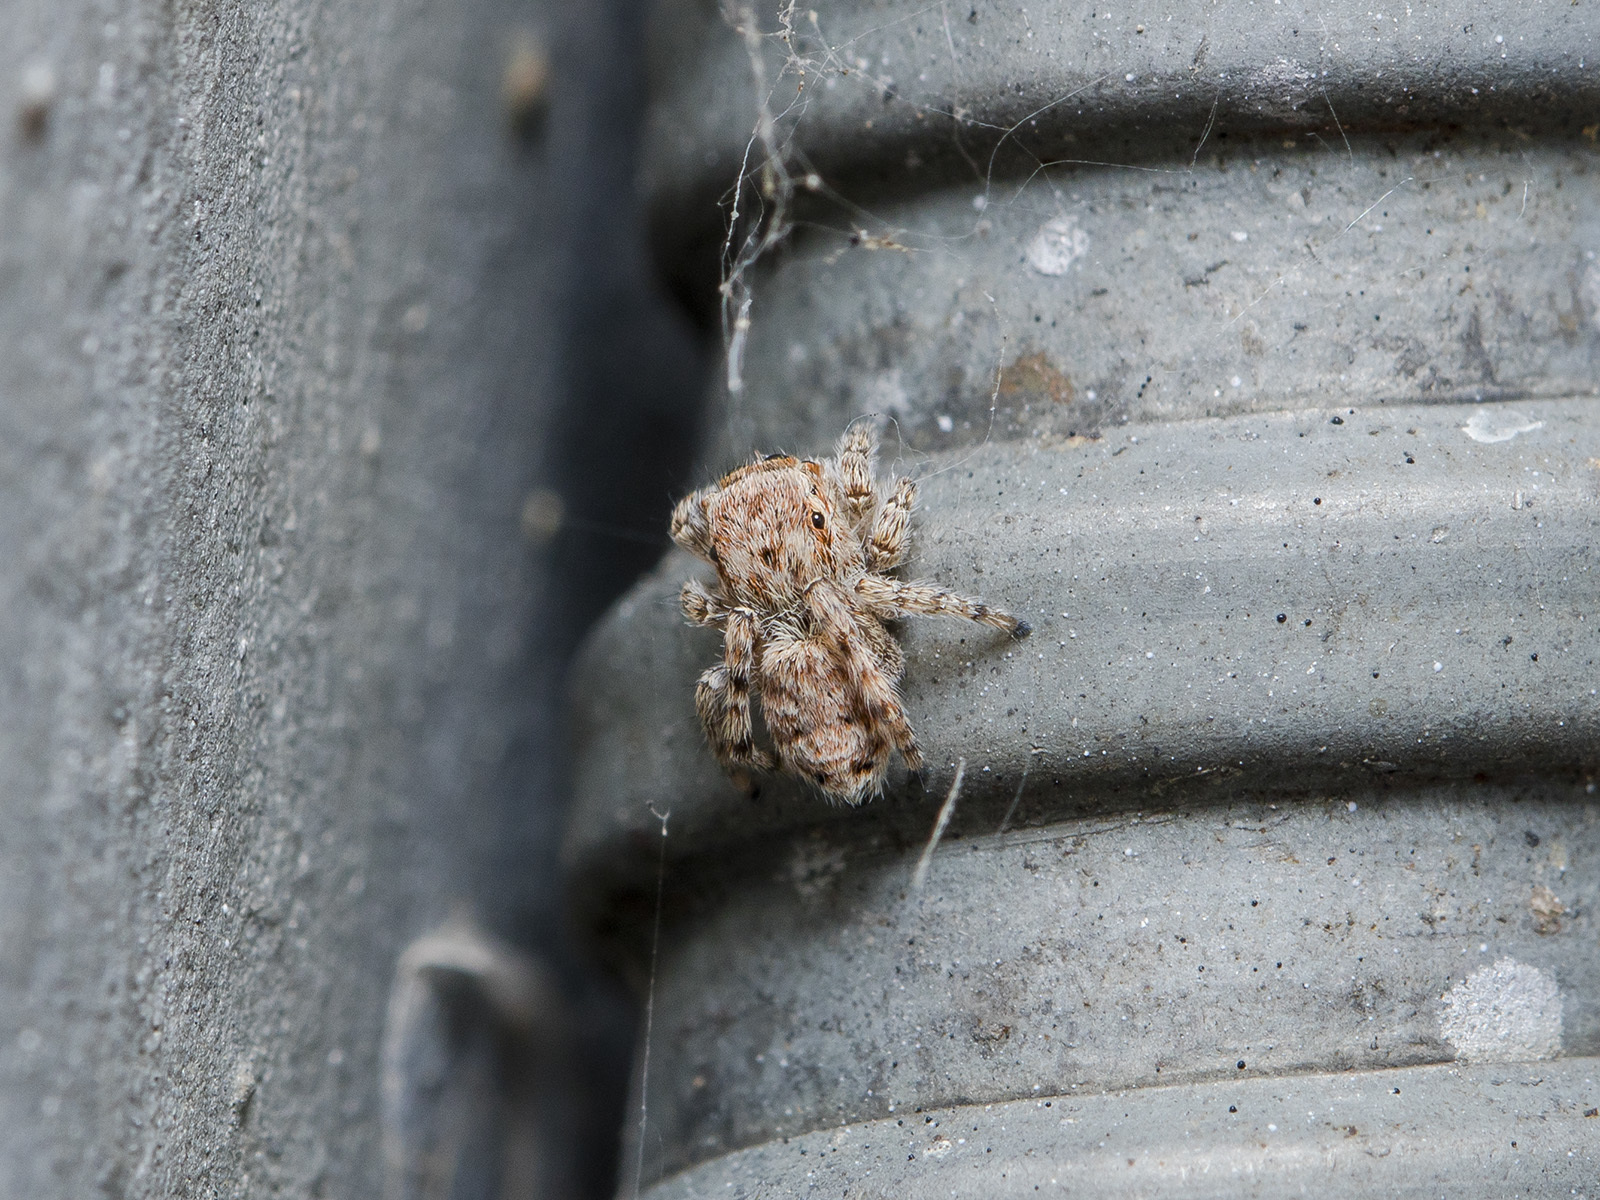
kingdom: Animalia
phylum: Arthropoda
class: Arachnida
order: Araneae
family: Salticidae
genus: Attulus
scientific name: Attulus avocator
